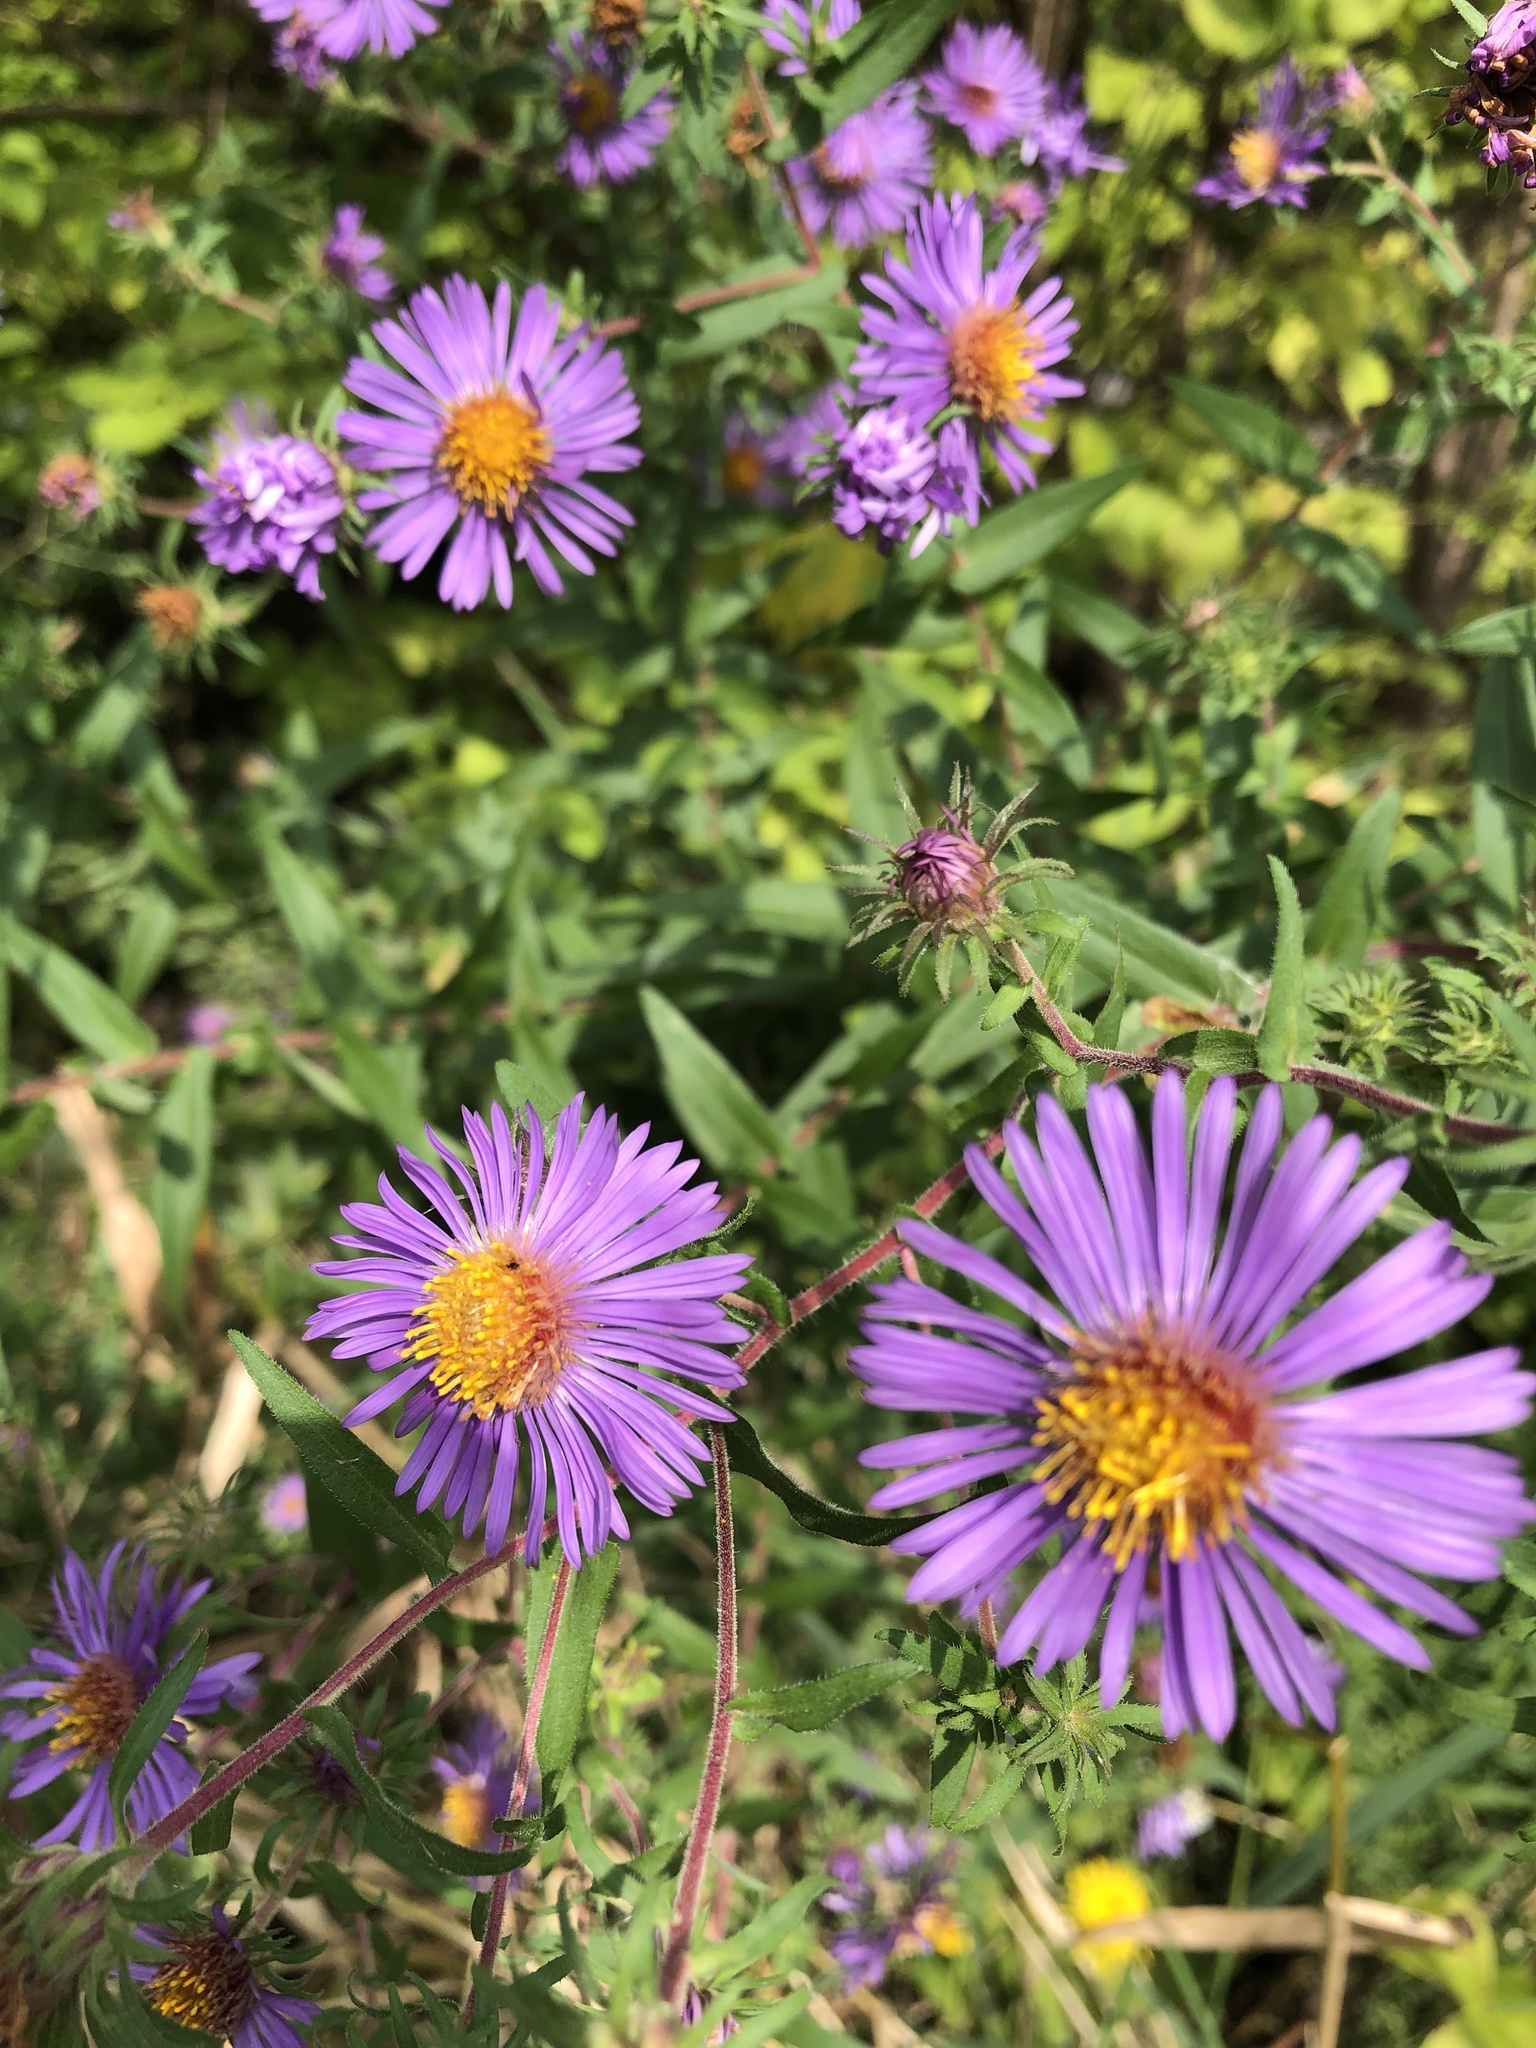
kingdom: Plantae
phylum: Tracheophyta
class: Magnoliopsida
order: Asterales
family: Asteraceae
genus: Symphyotrichum
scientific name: Symphyotrichum novae-angliae
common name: Michaelmas daisy
